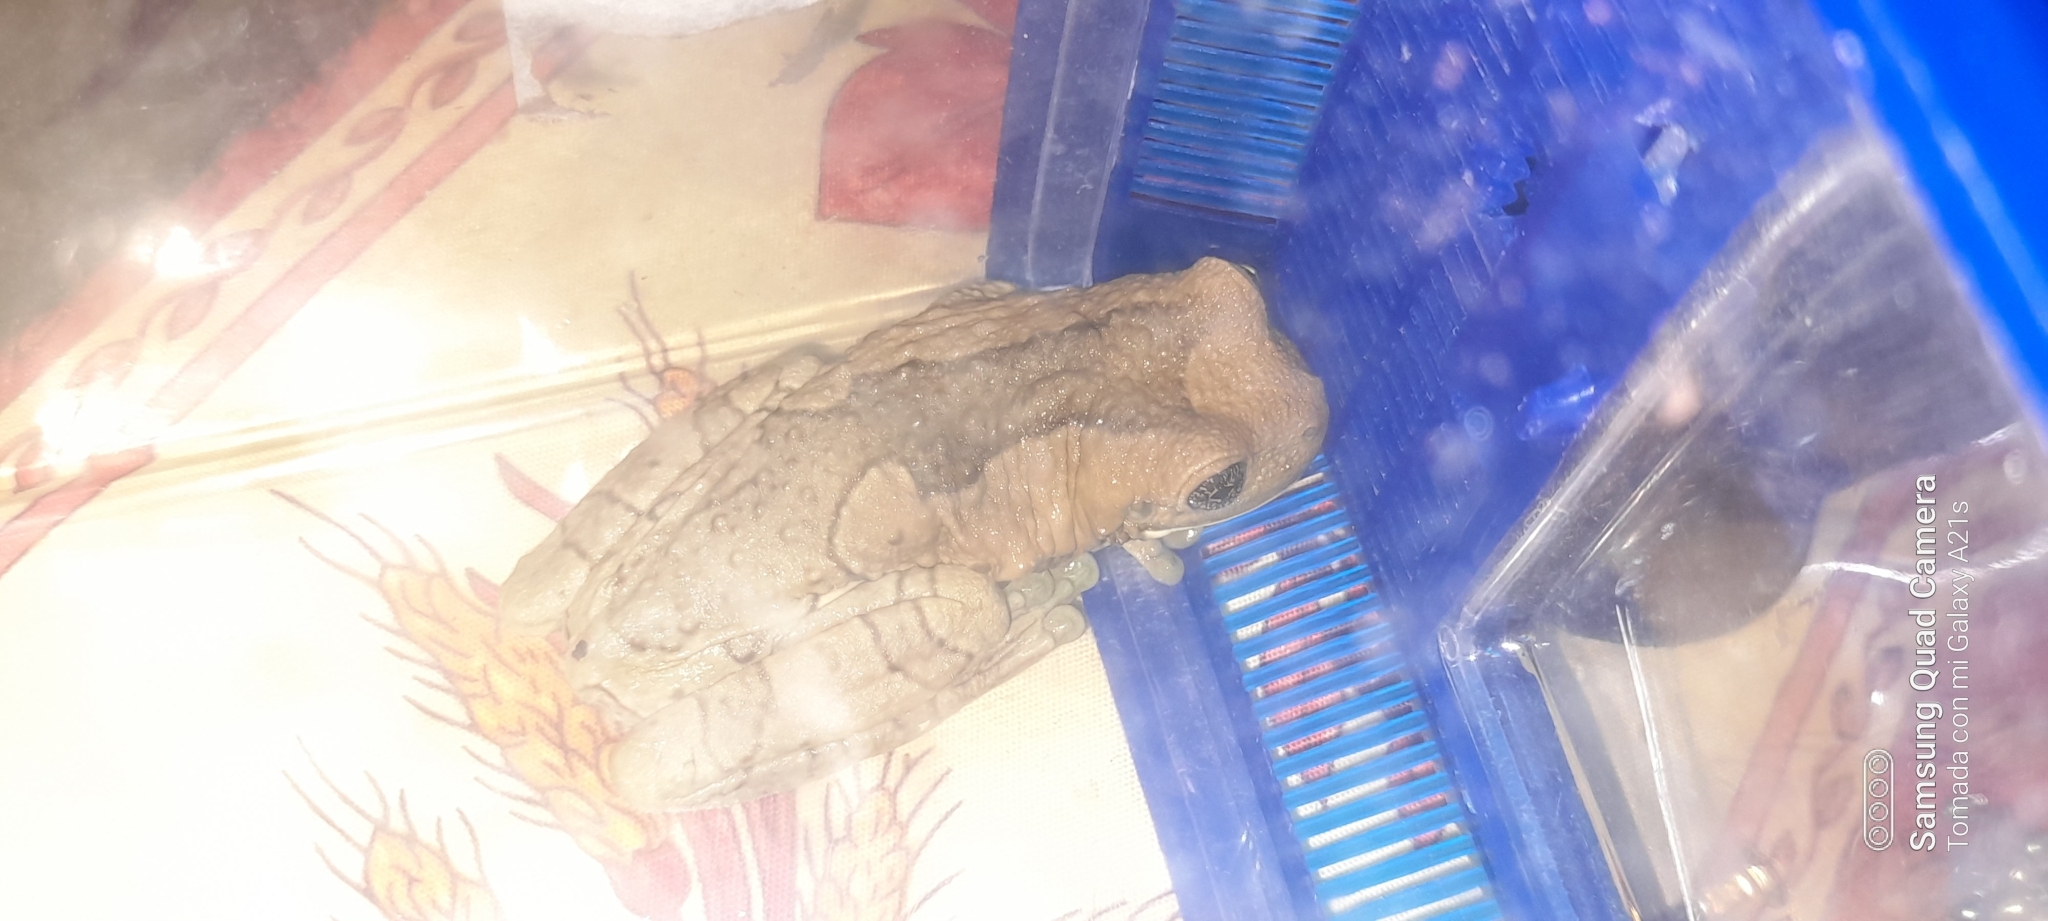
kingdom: Animalia
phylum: Chordata
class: Amphibia
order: Anura
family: Hylidae
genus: Trachycephalus
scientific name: Trachycephalus vermiculatus
